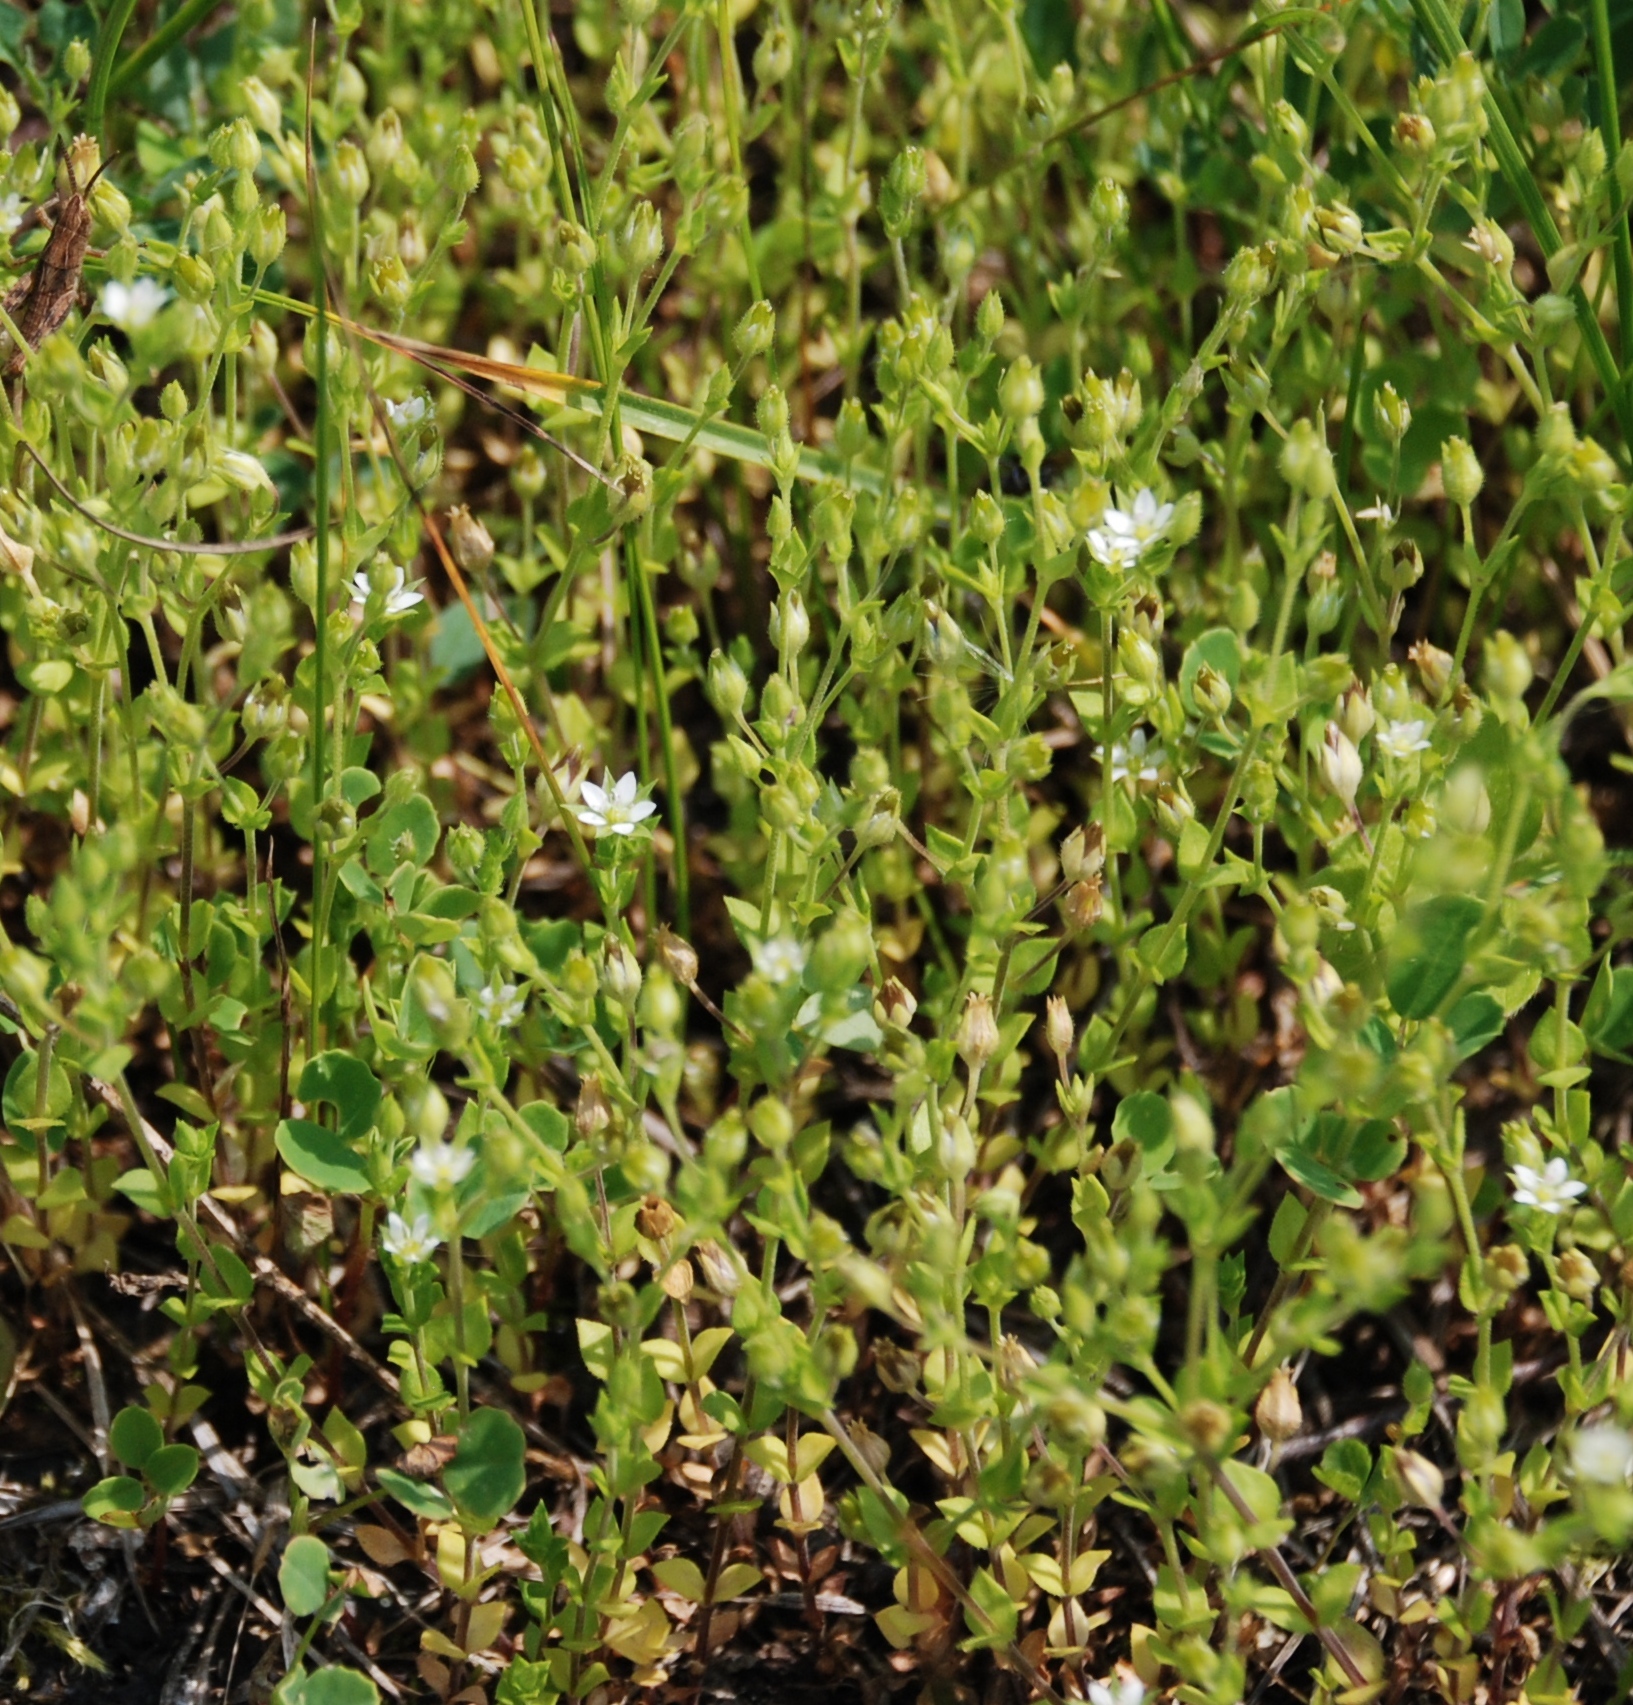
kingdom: Plantae
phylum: Tracheophyta
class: Magnoliopsida
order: Caryophyllales
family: Caryophyllaceae
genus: Arenaria
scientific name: Arenaria serpyllifolia
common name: Thyme-leaved sandwort
